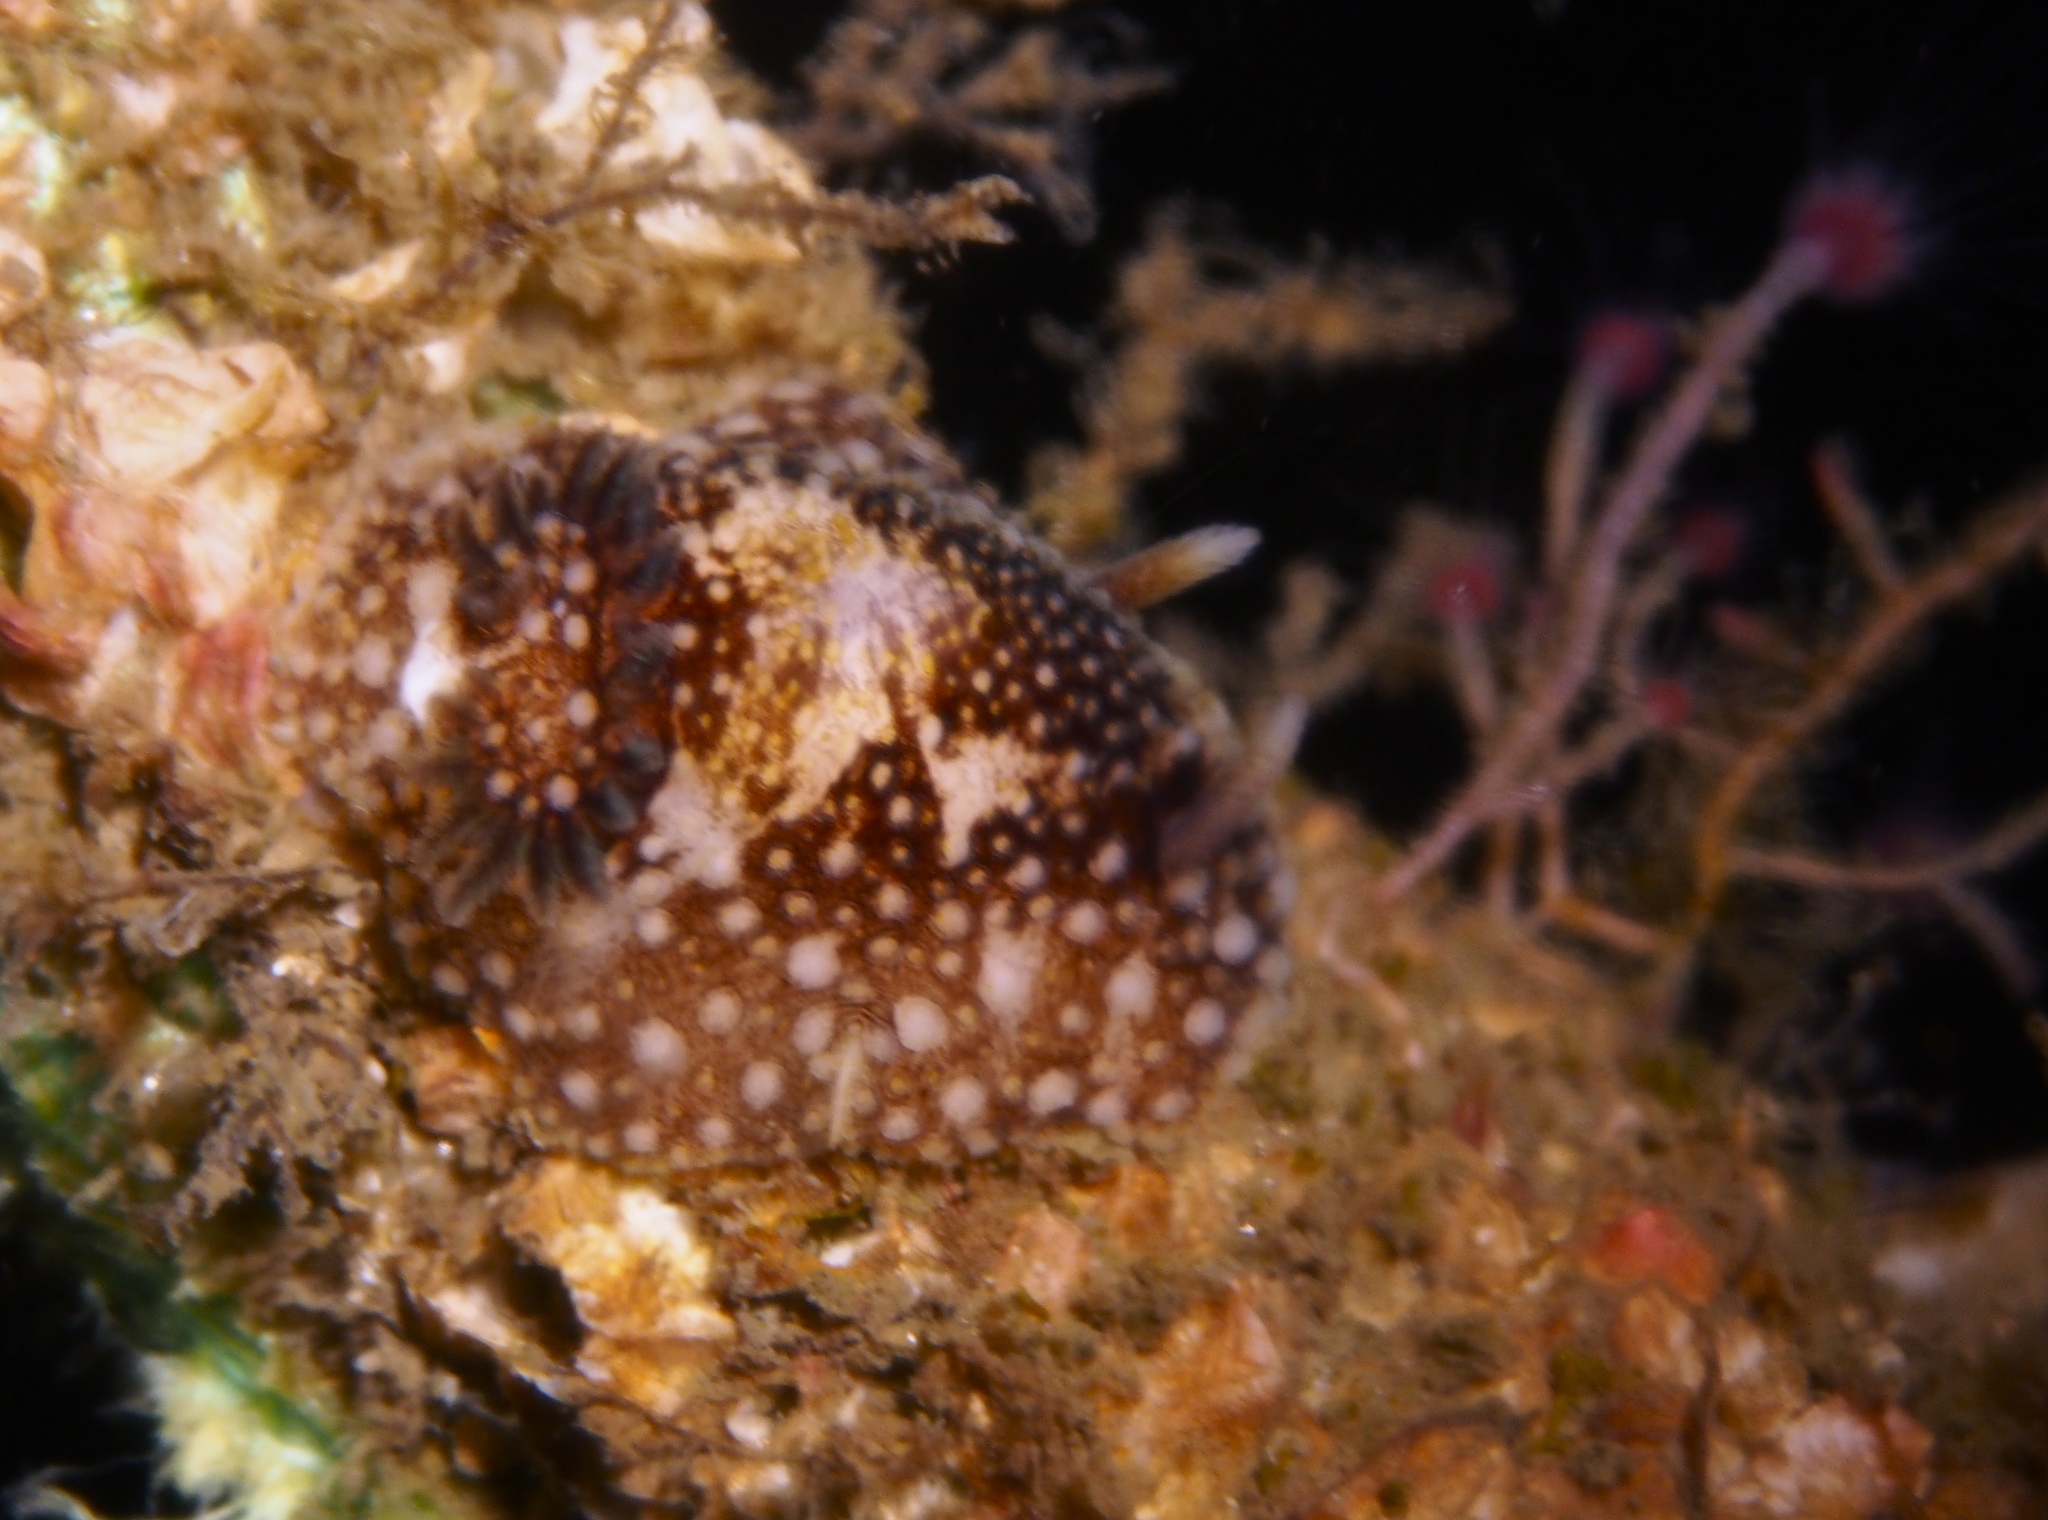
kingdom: Animalia
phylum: Mollusca
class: Gastropoda
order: Nudibranchia
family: Onchidorididae
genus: Onchidoris
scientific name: Onchidoris bilamellata
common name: Barnacle-eating onchidoris
